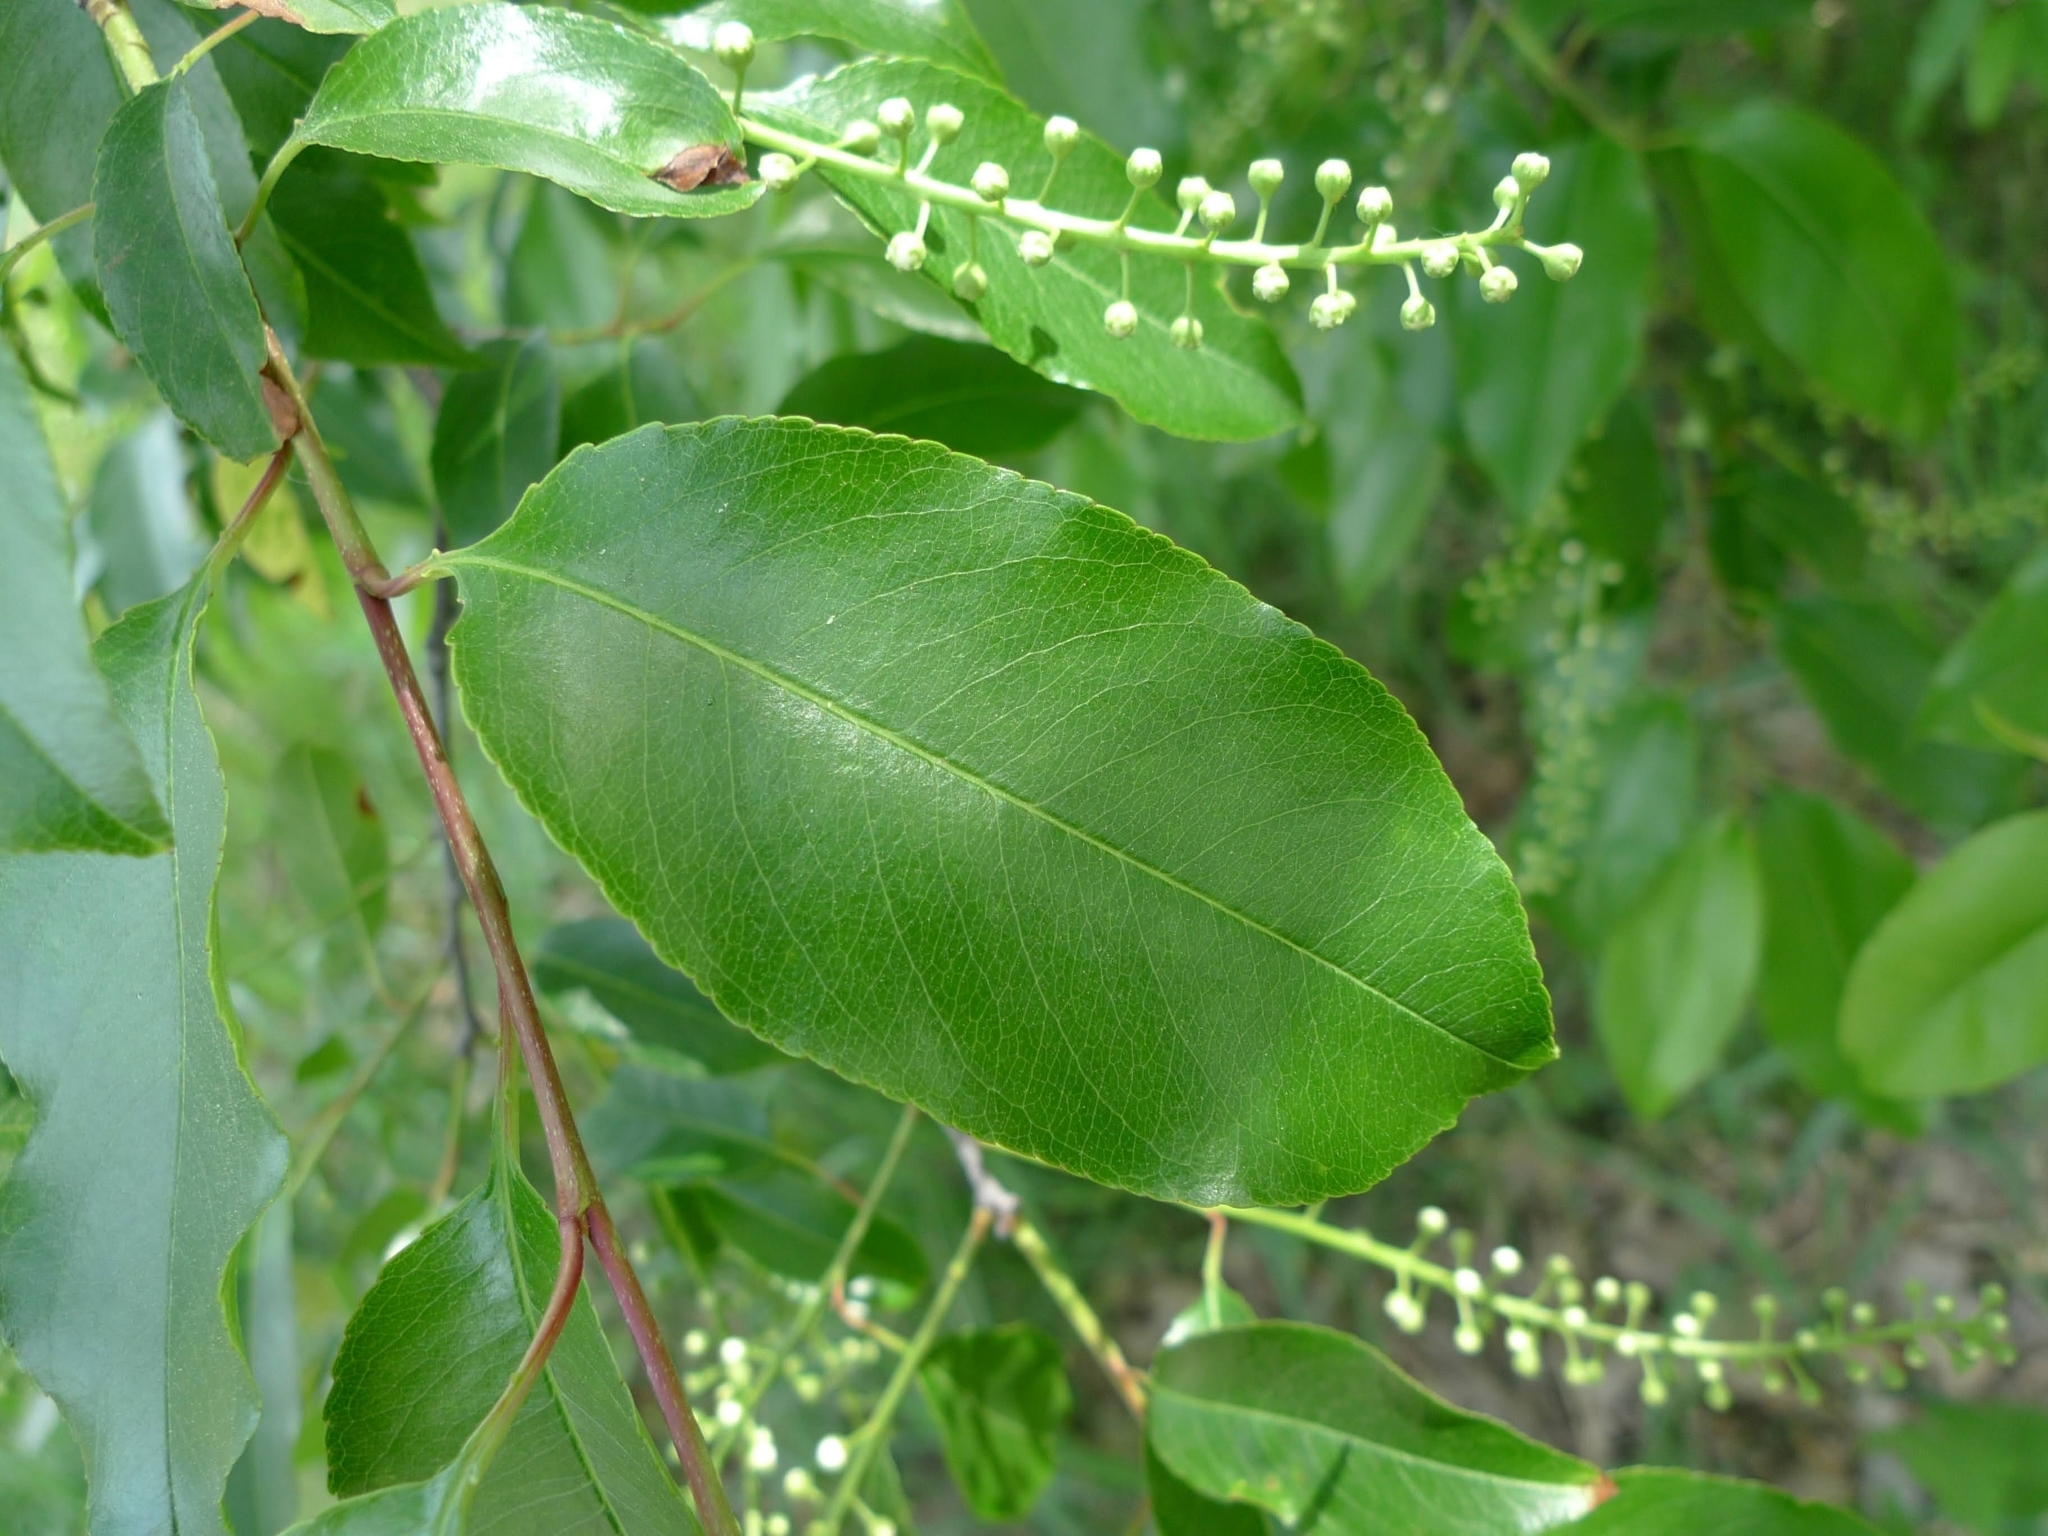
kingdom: Plantae
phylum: Tracheophyta
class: Magnoliopsida
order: Rosales
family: Rosaceae
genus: Prunus
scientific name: Prunus serotina
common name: Black cherry
